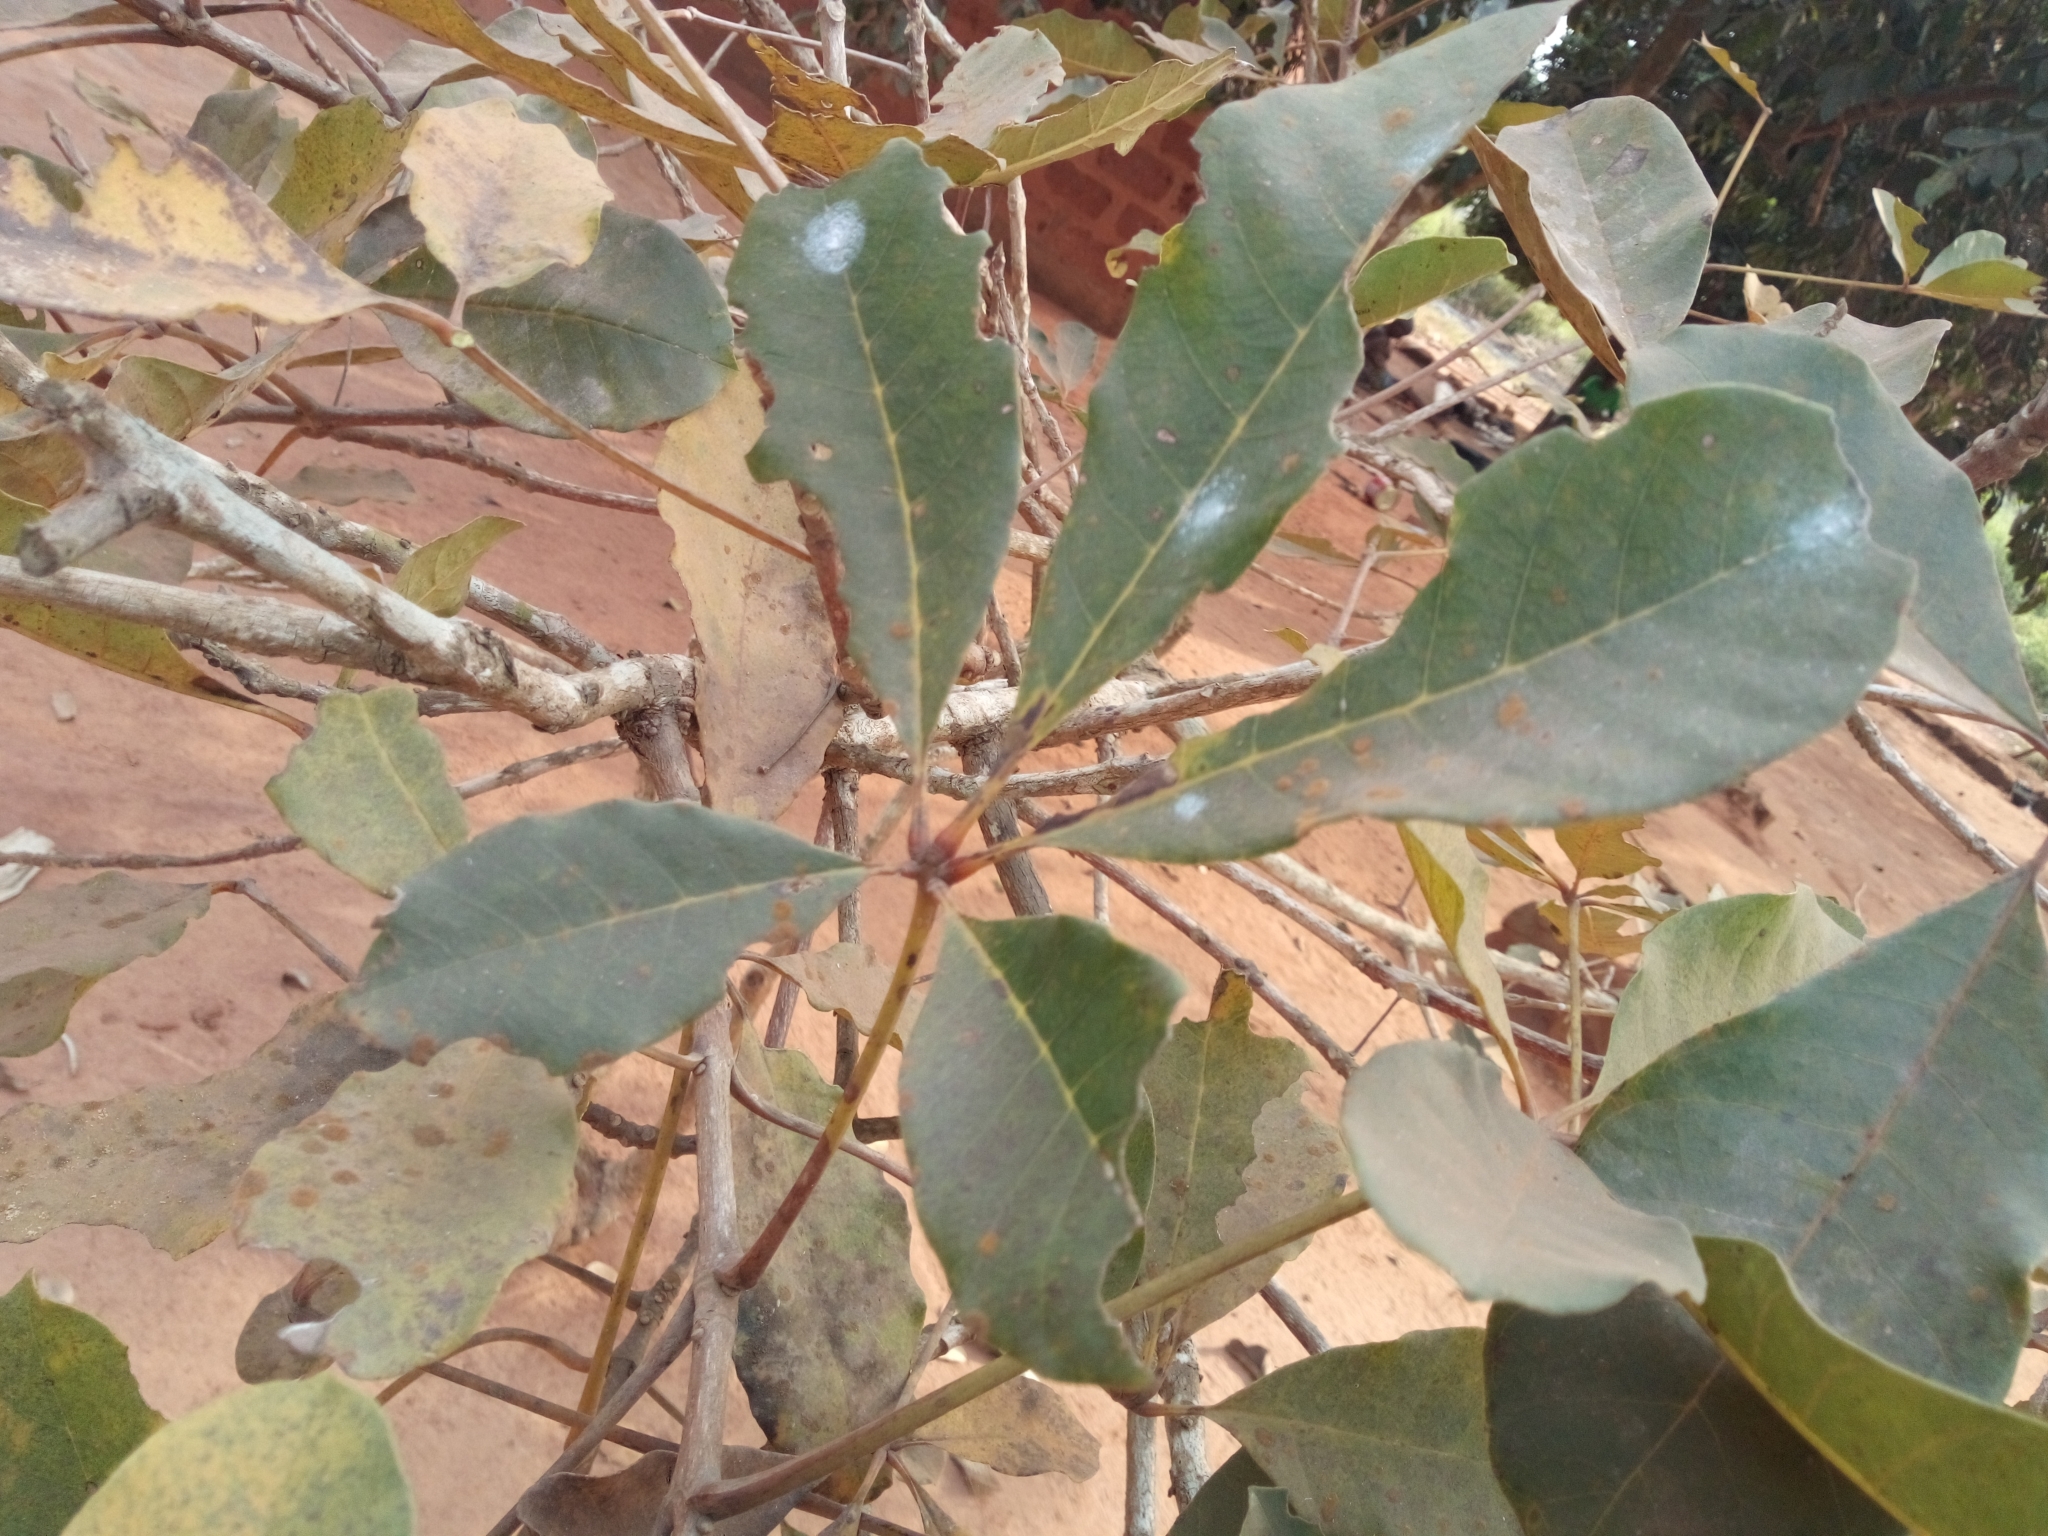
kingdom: Plantae
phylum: Tracheophyta
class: Magnoliopsida
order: Lamiales
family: Lamiaceae
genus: Vitex
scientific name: Vitex doniana
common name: Black plum
